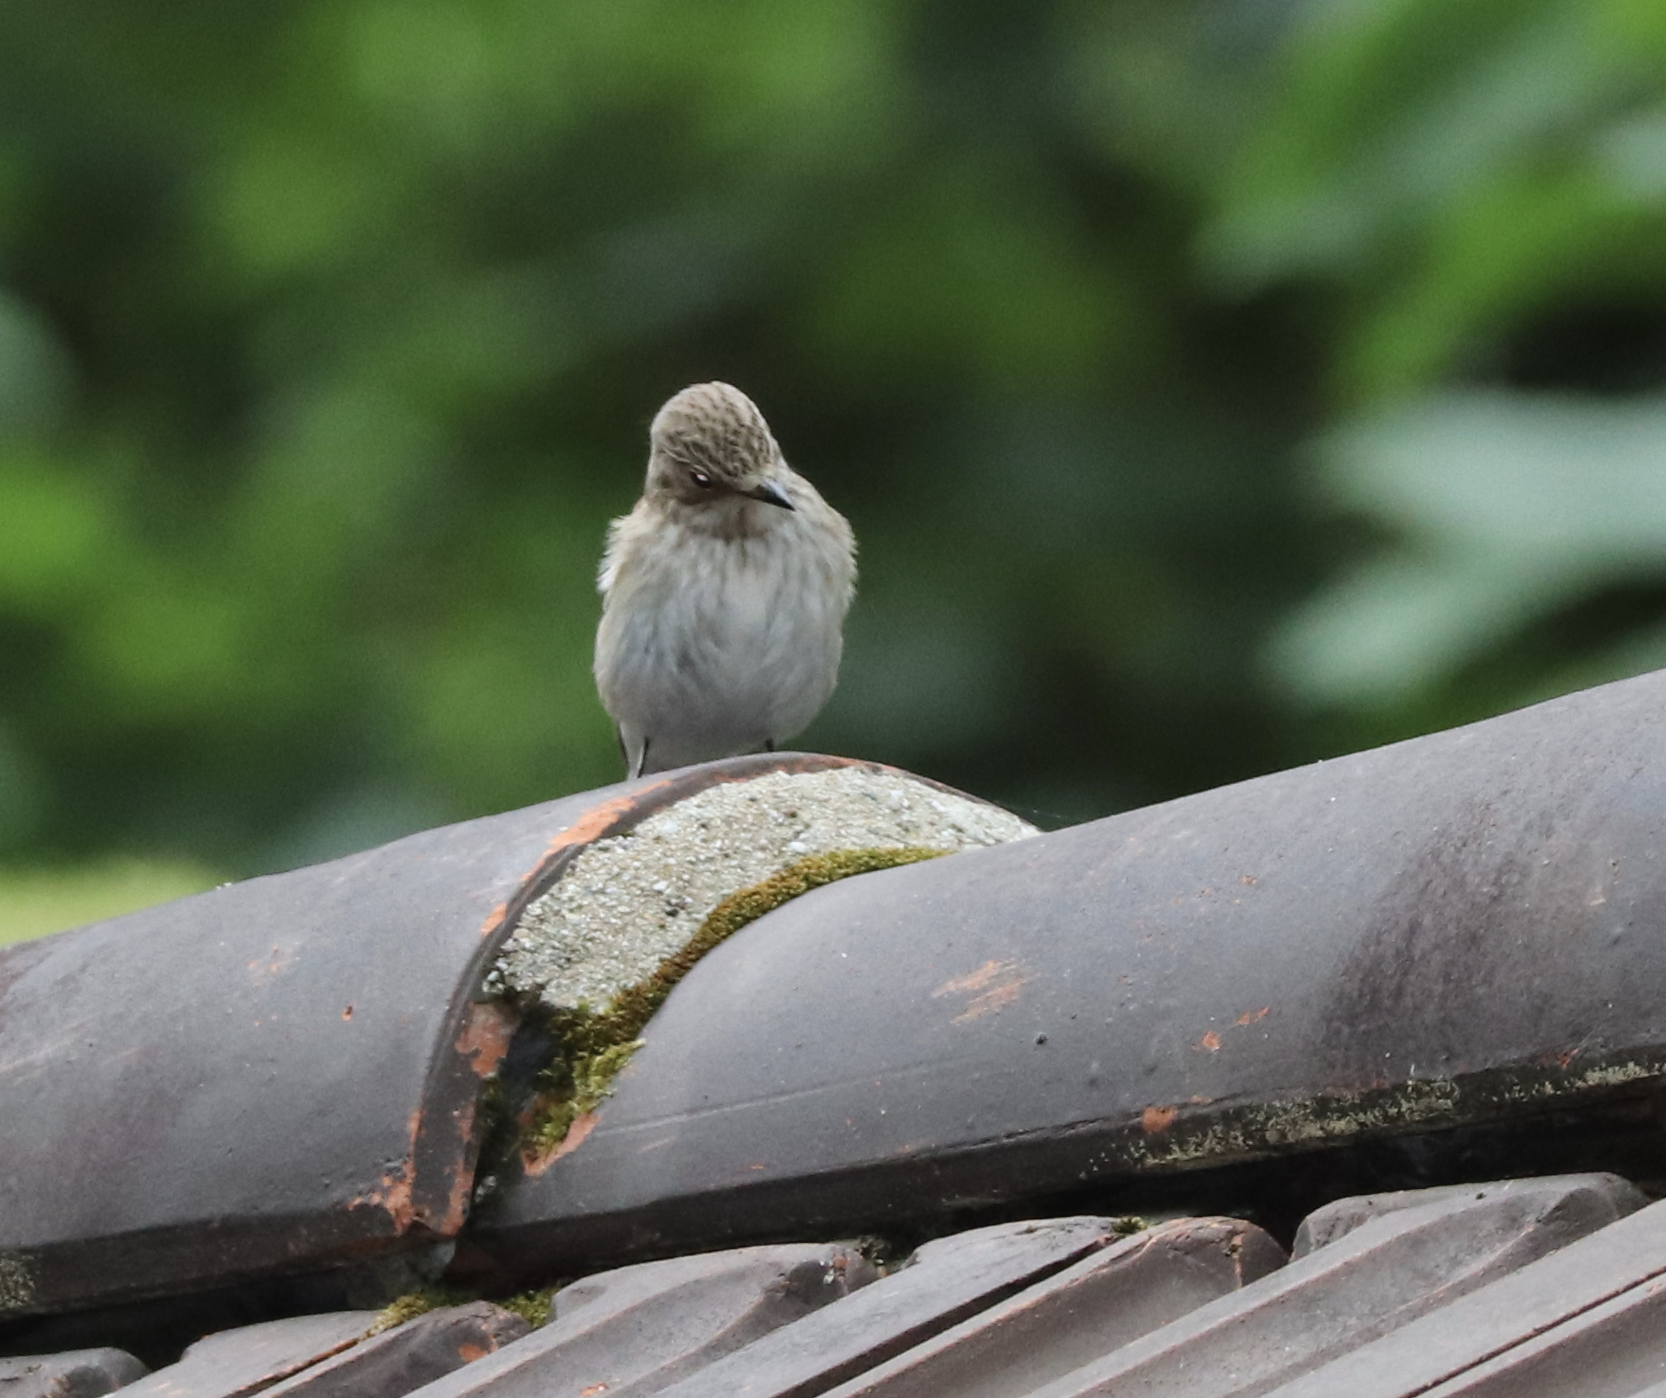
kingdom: Animalia
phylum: Chordata
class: Aves
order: Passeriformes
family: Muscicapidae
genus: Muscicapa
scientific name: Muscicapa striata
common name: Spotted flycatcher
